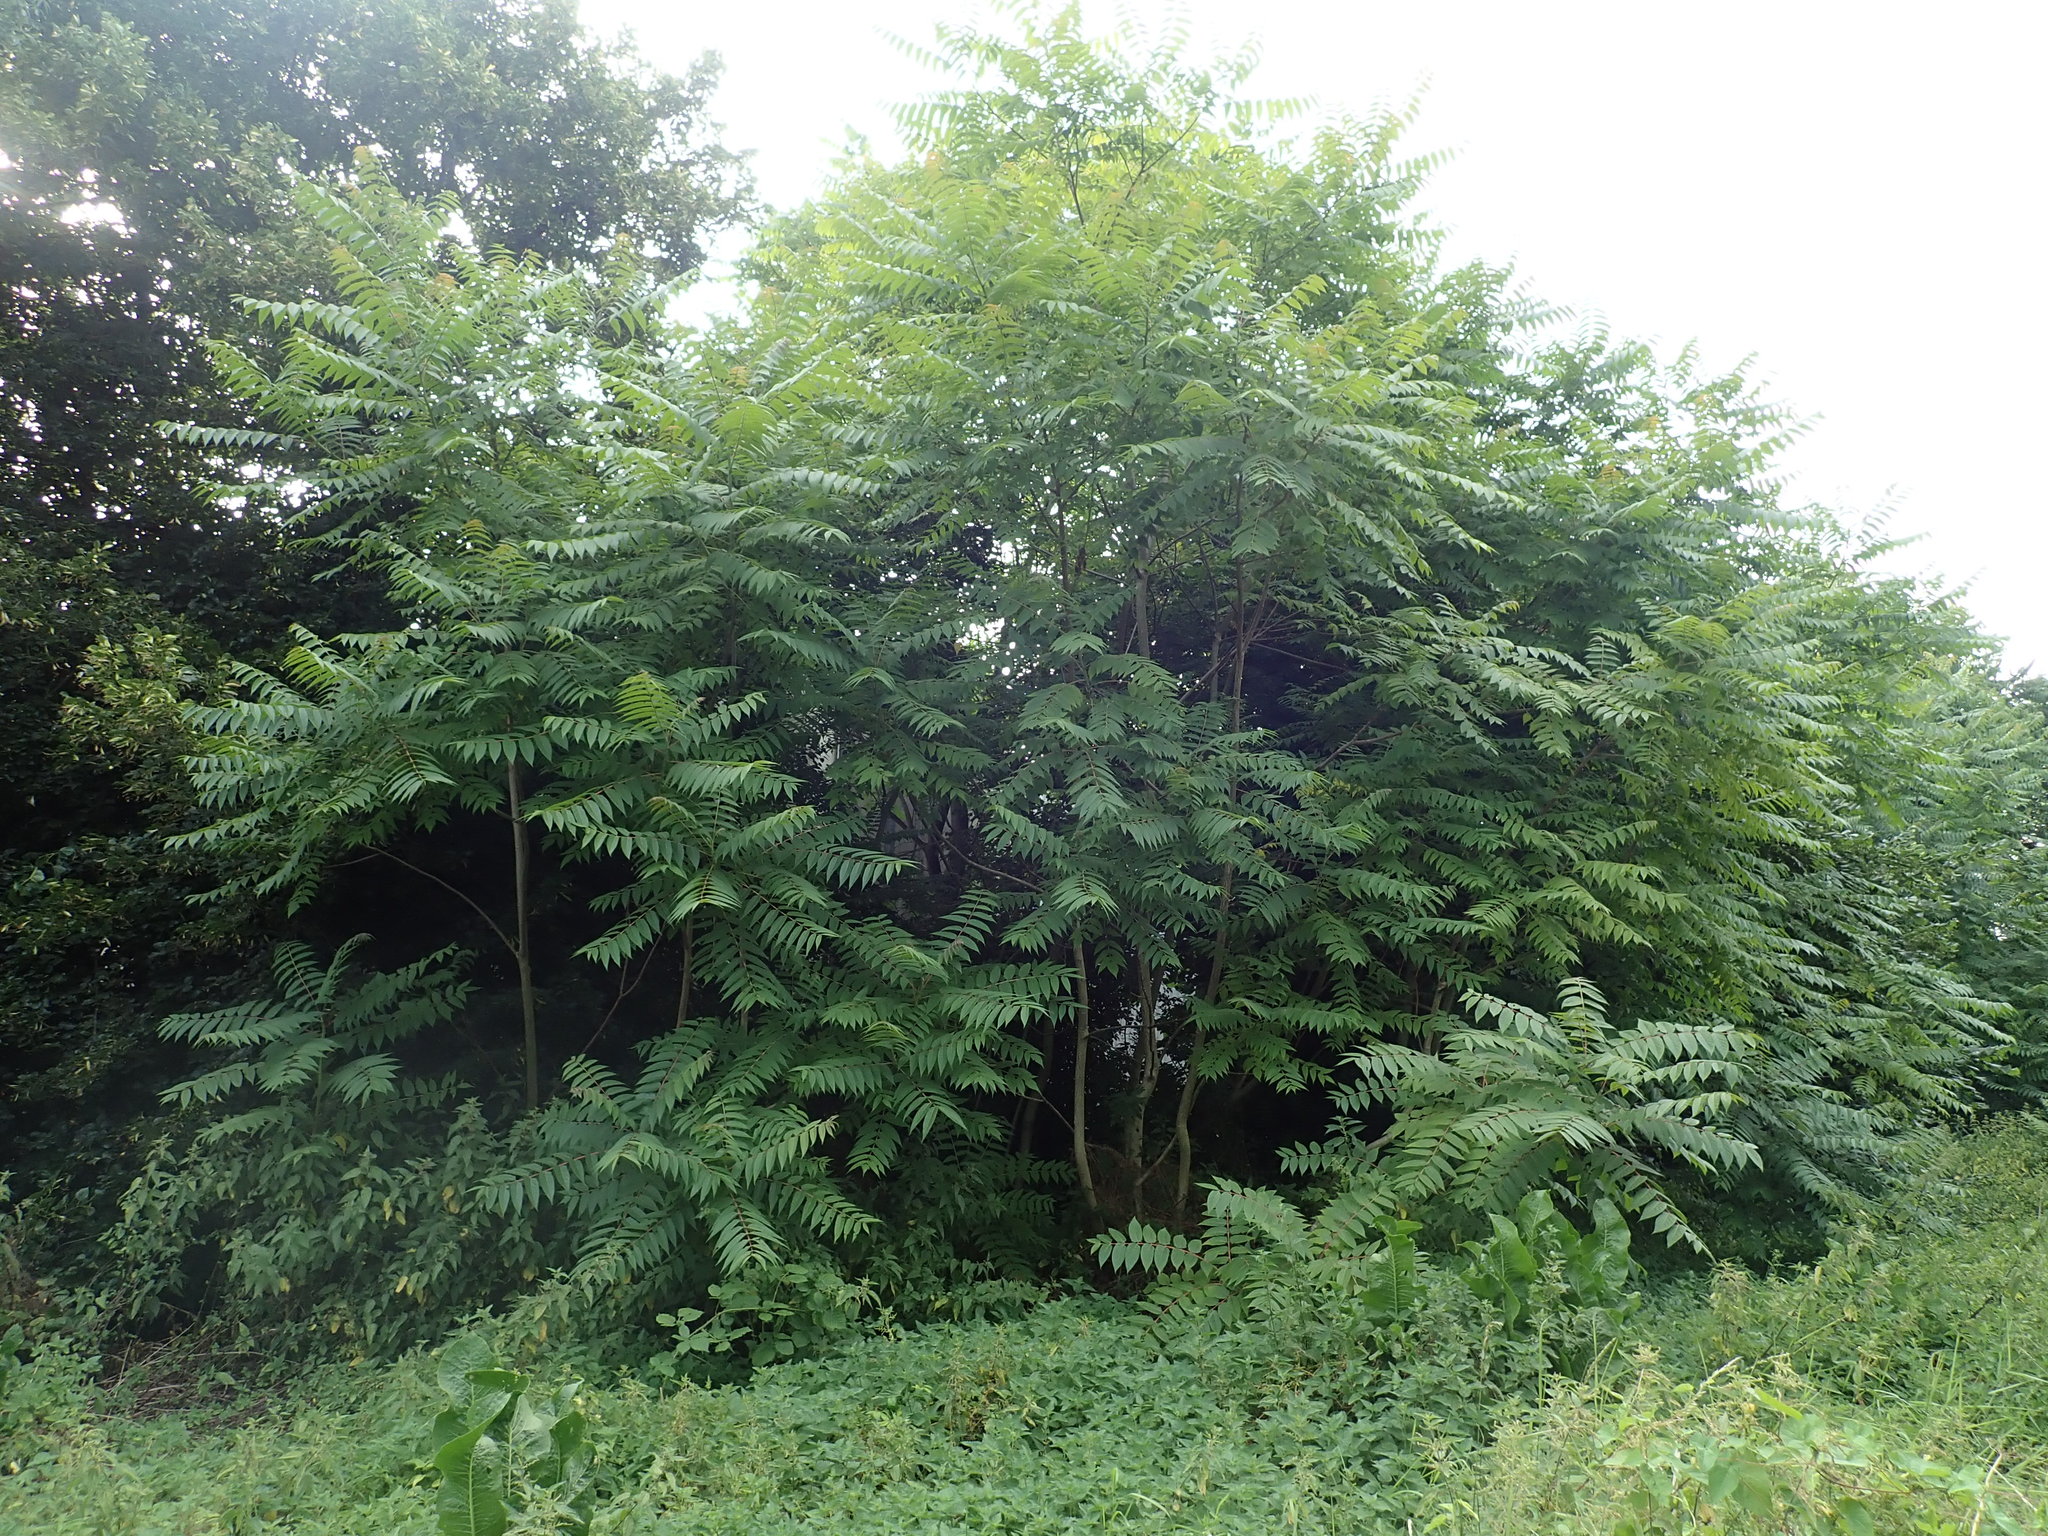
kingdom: Plantae
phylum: Tracheophyta
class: Magnoliopsida
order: Sapindales
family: Simaroubaceae
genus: Ailanthus
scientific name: Ailanthus altissima
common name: Tree-of-heaven
